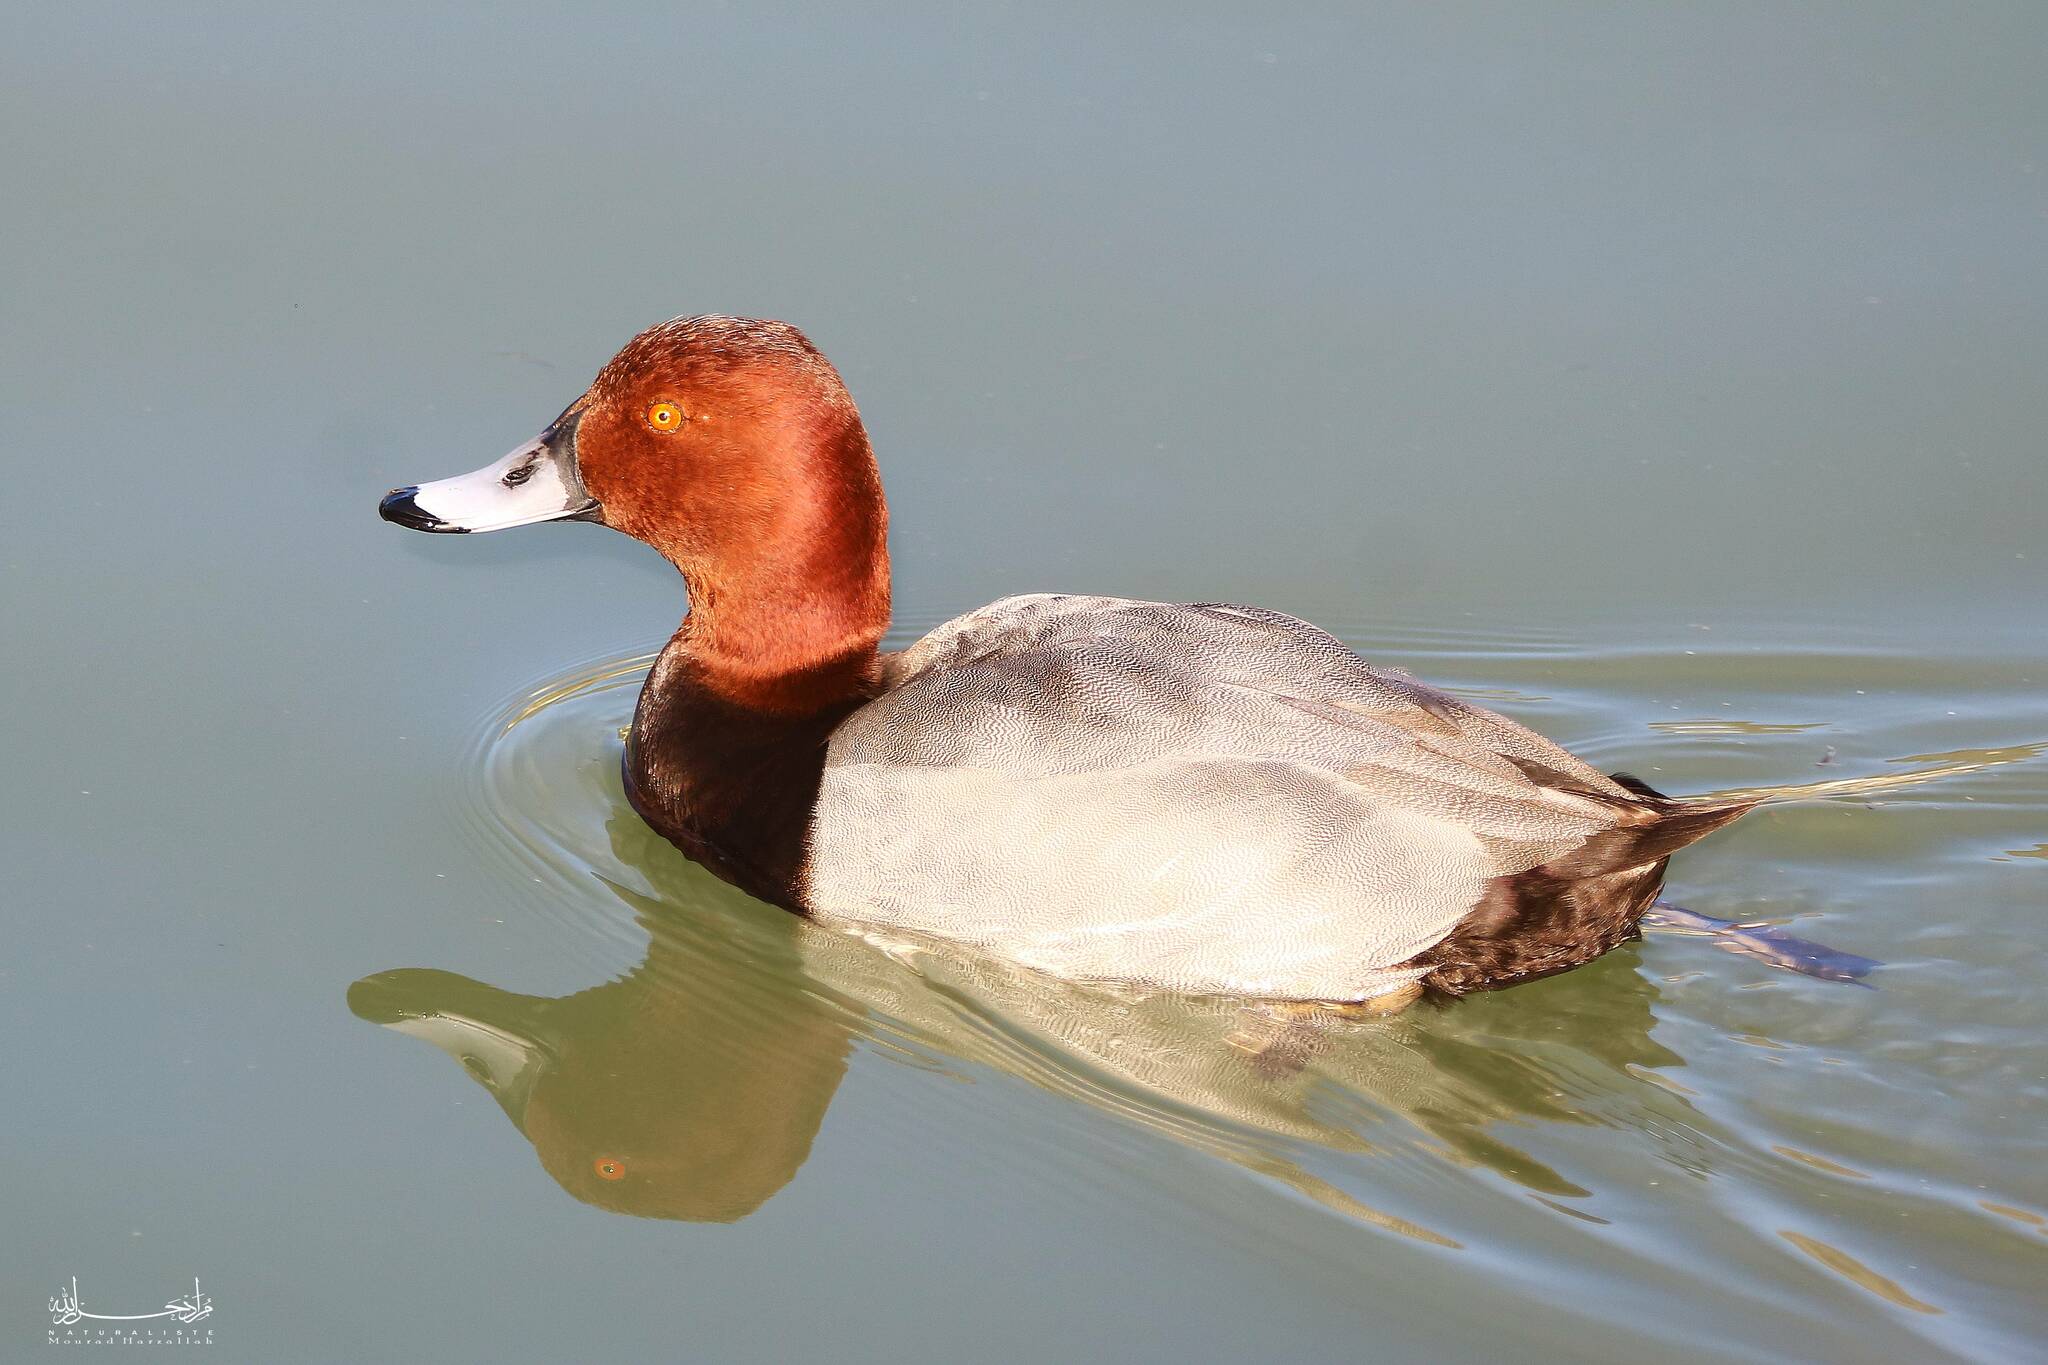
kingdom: Animalia
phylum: Chordata
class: Aves
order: Anseriformes
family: Anatidae
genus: Aythya
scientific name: Aythya ferina
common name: Common pochard
